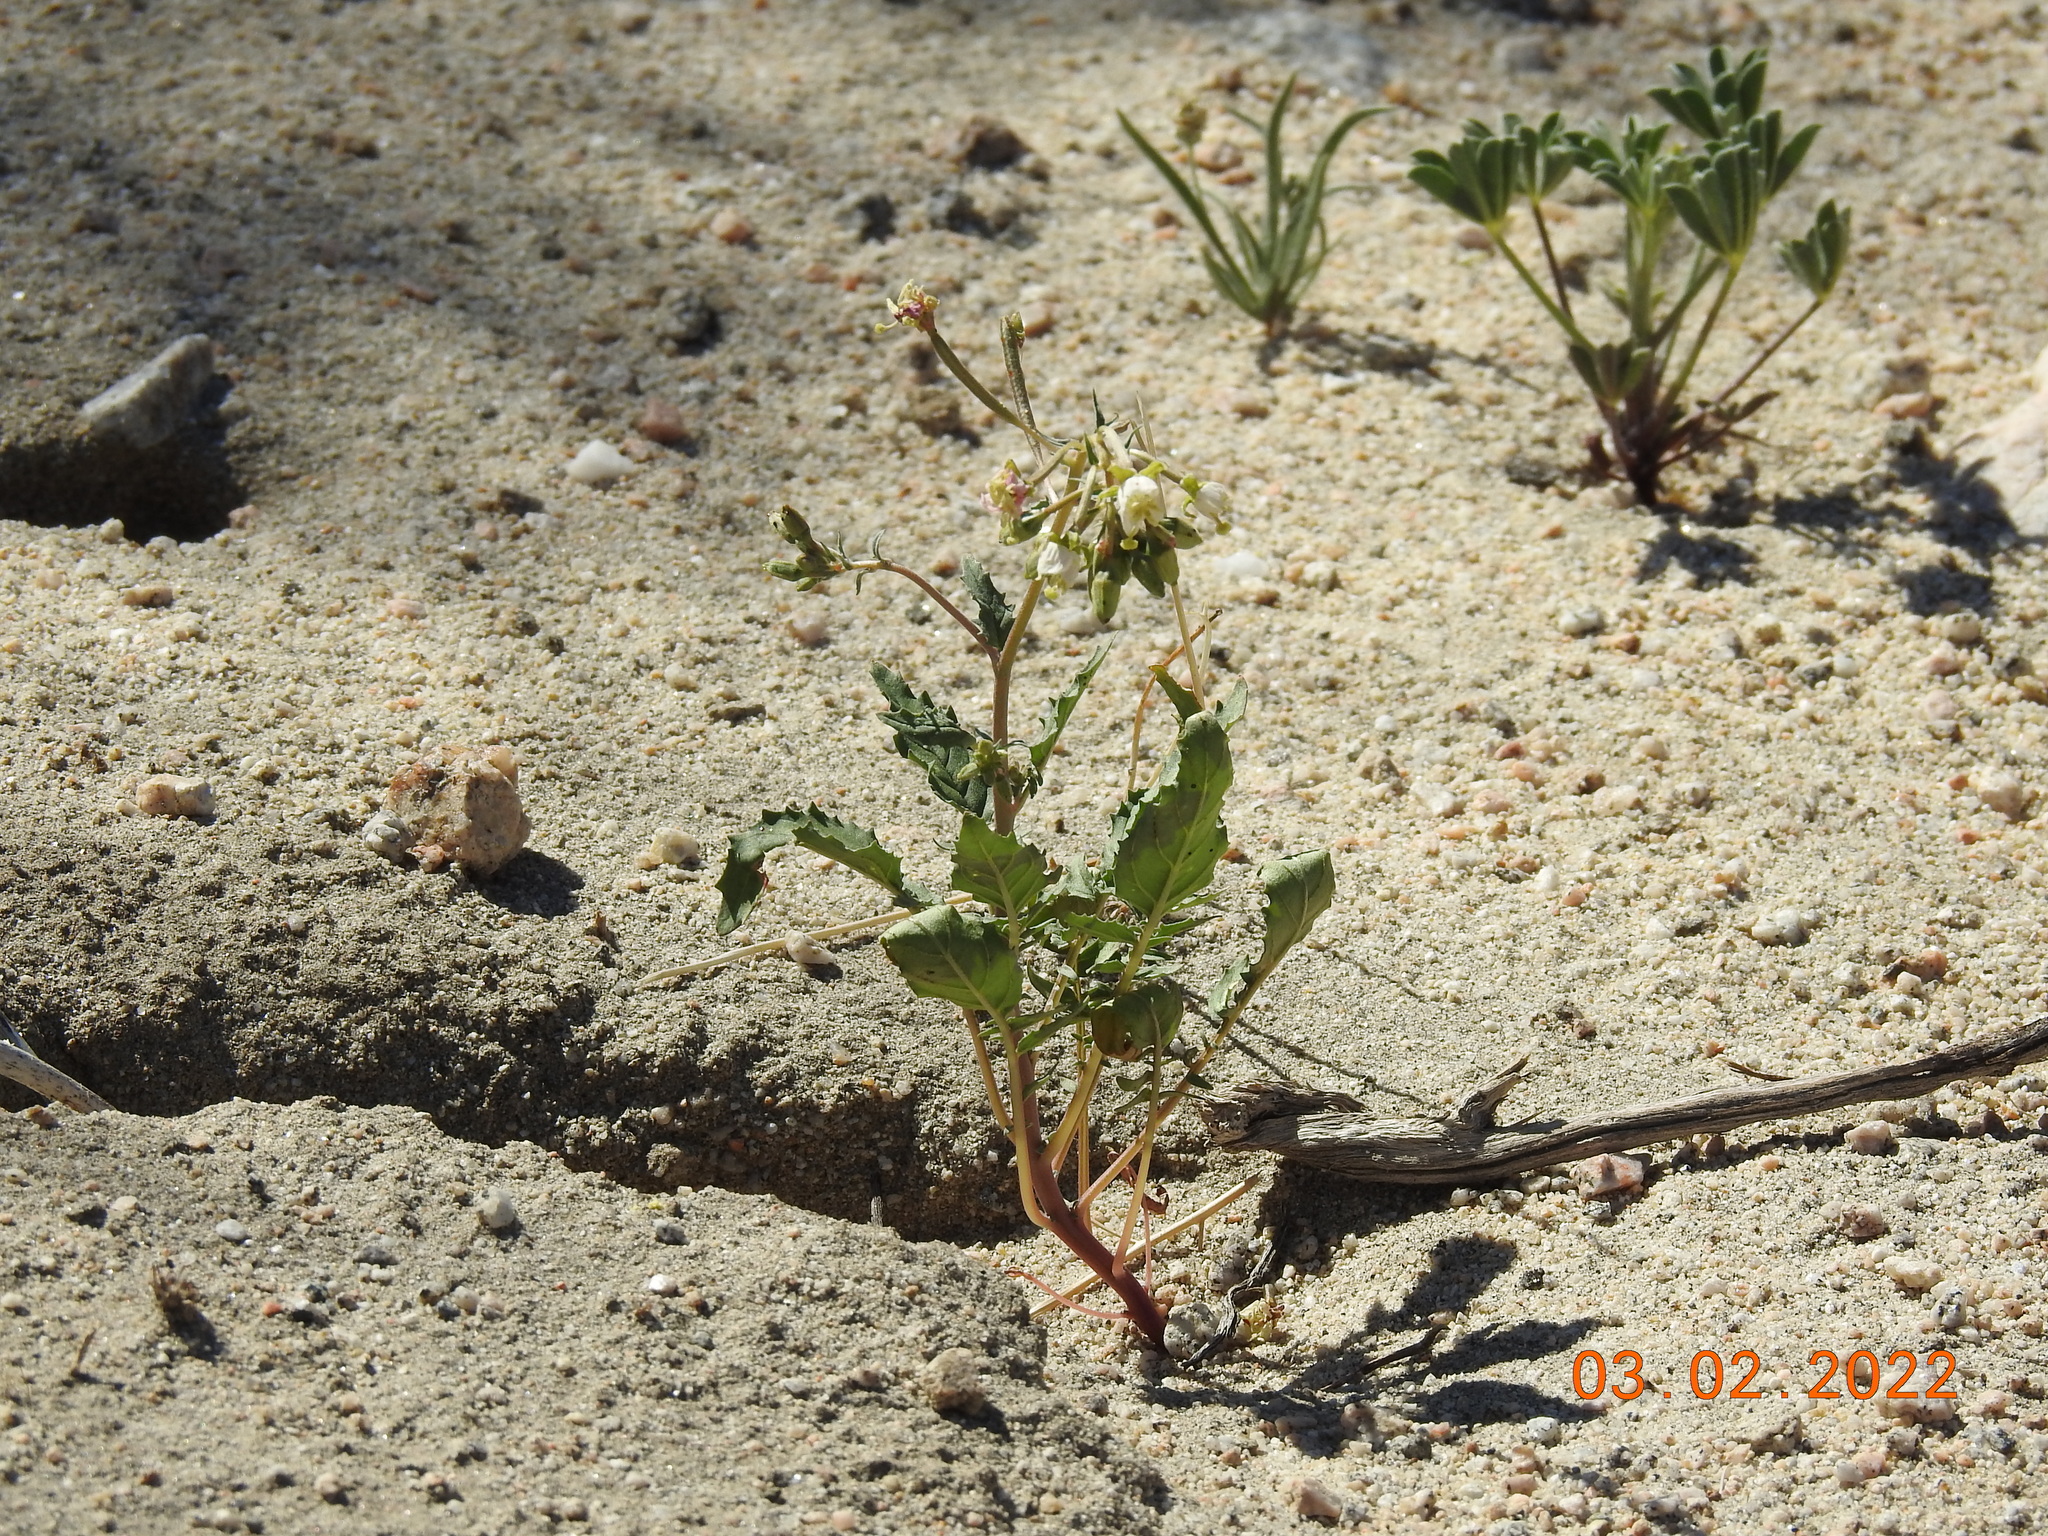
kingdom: Plantae
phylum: Tracheophyta
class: Magnoliopsida
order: Myrtales
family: Onagraceae
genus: Chylismia
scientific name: Chylismia claviformis
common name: Browneyes
